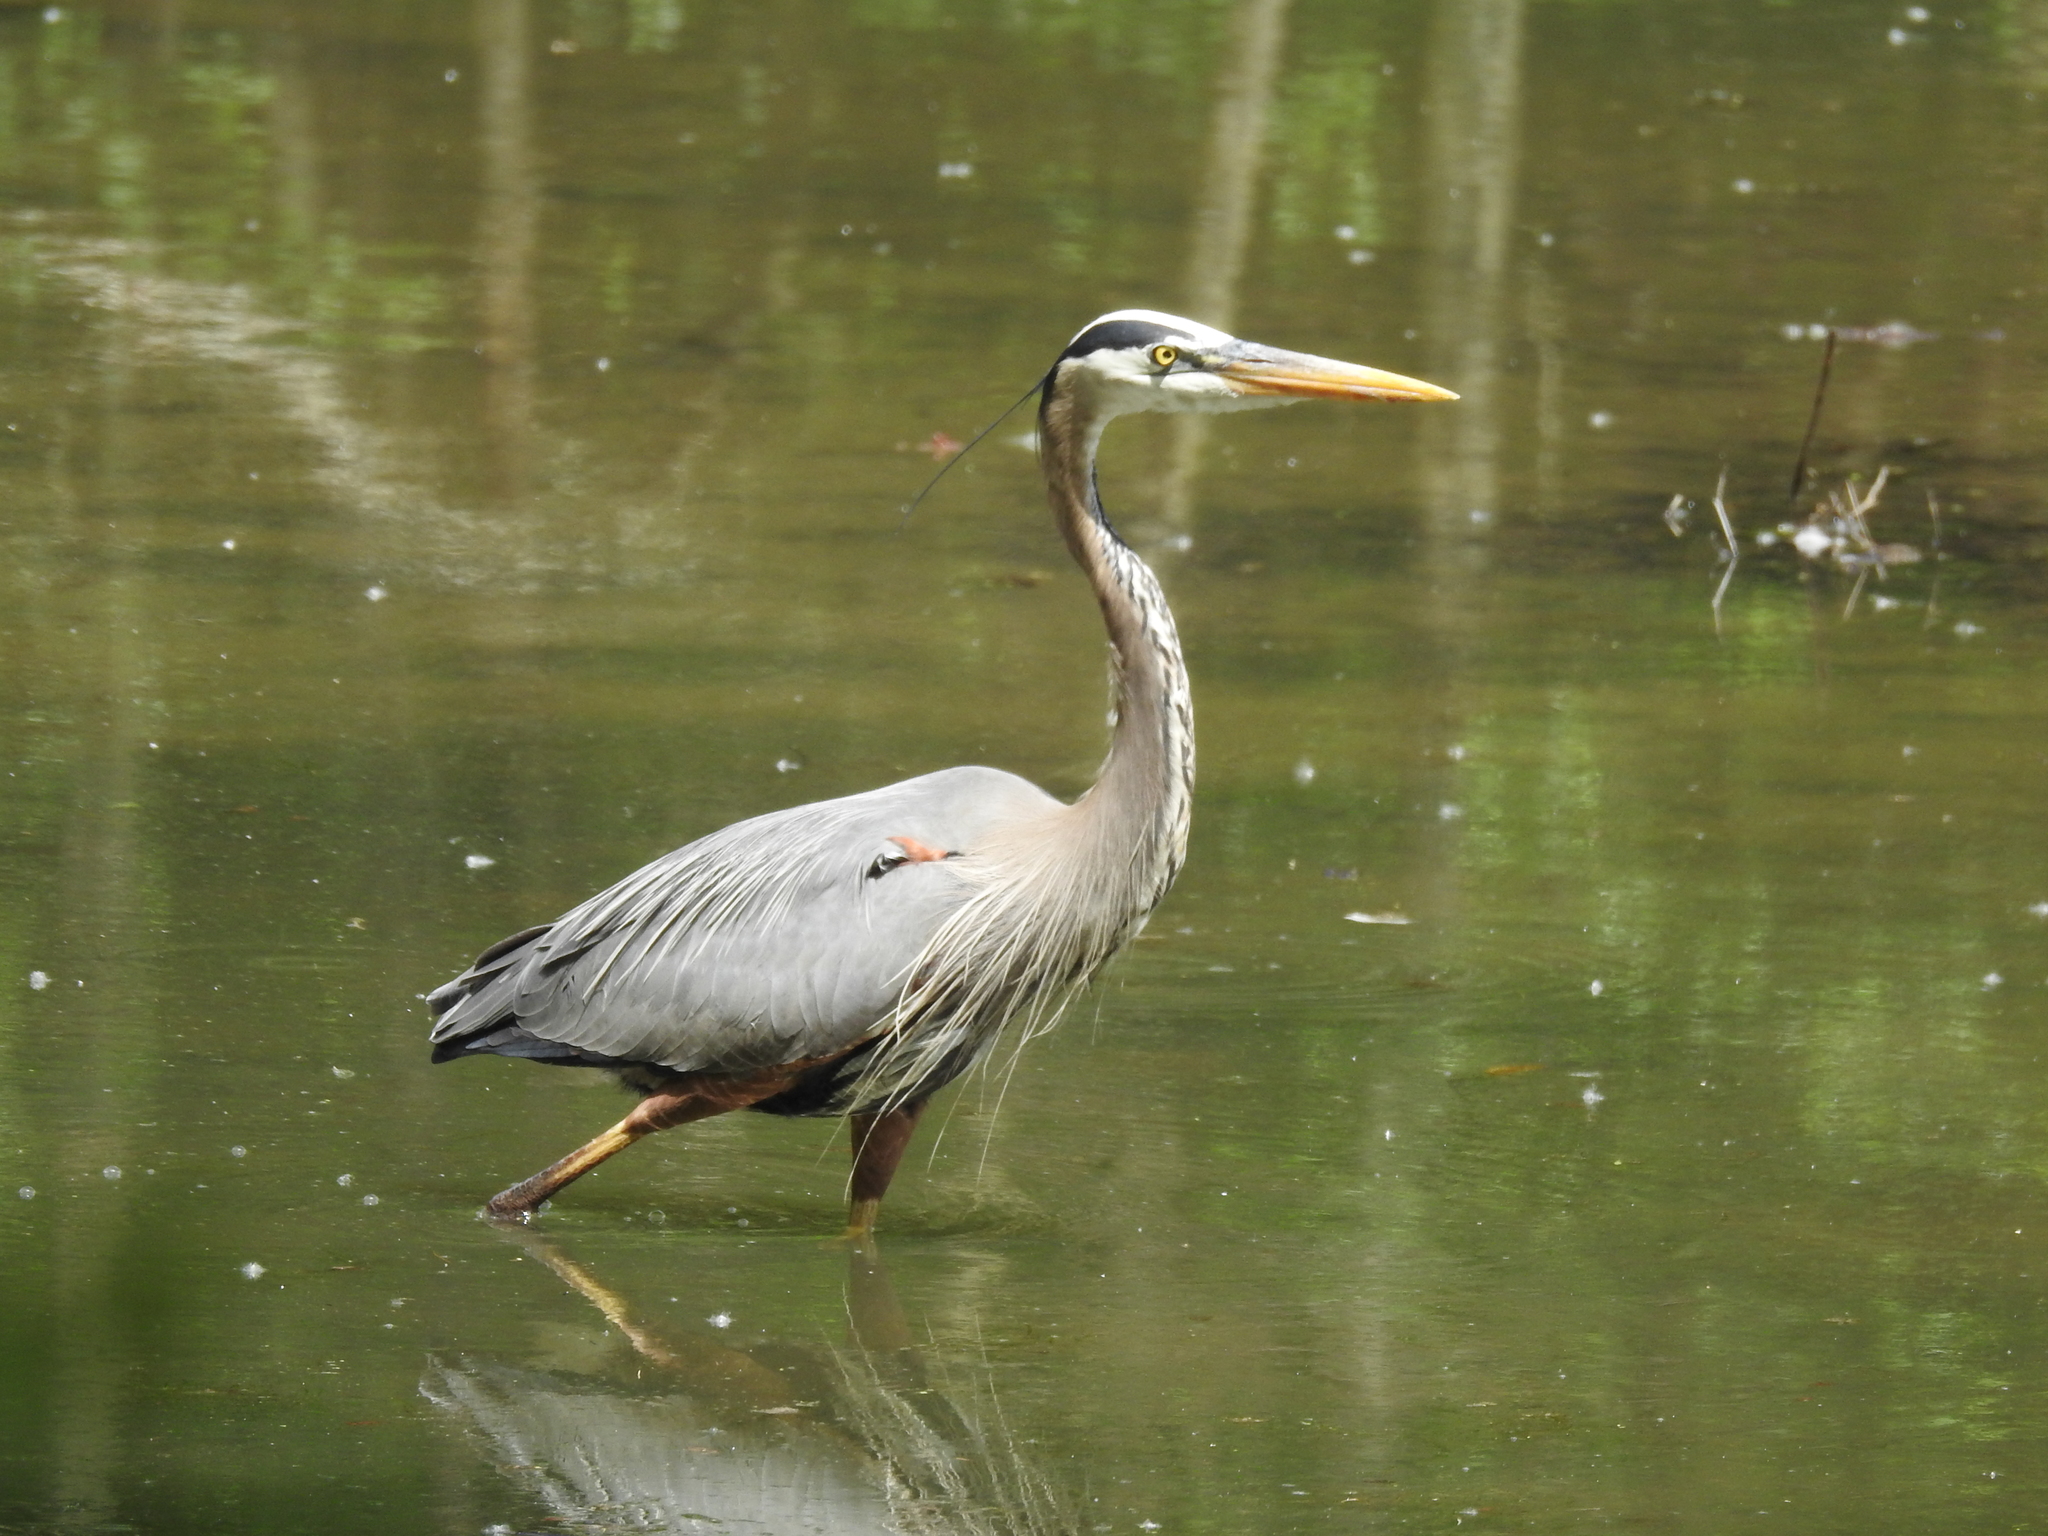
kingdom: Animalia
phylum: Chordata
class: Aves
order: Pelecaniformes
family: Ardeidae
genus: Ardea
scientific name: Ardea herodias
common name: Great blue heron
